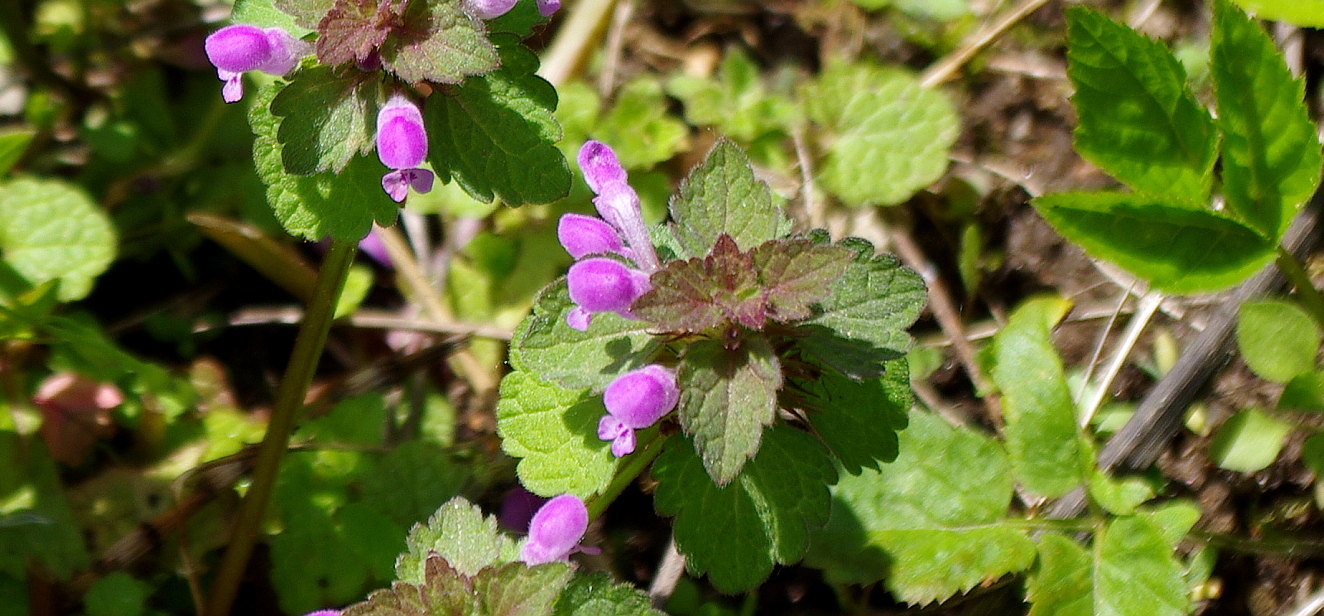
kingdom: Plantae
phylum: Tracheophyta
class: Magnoliopsida
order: Lamiales
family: Lamiaceae
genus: Lamium
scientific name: Lamium purpureum
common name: Red dead-nettle
